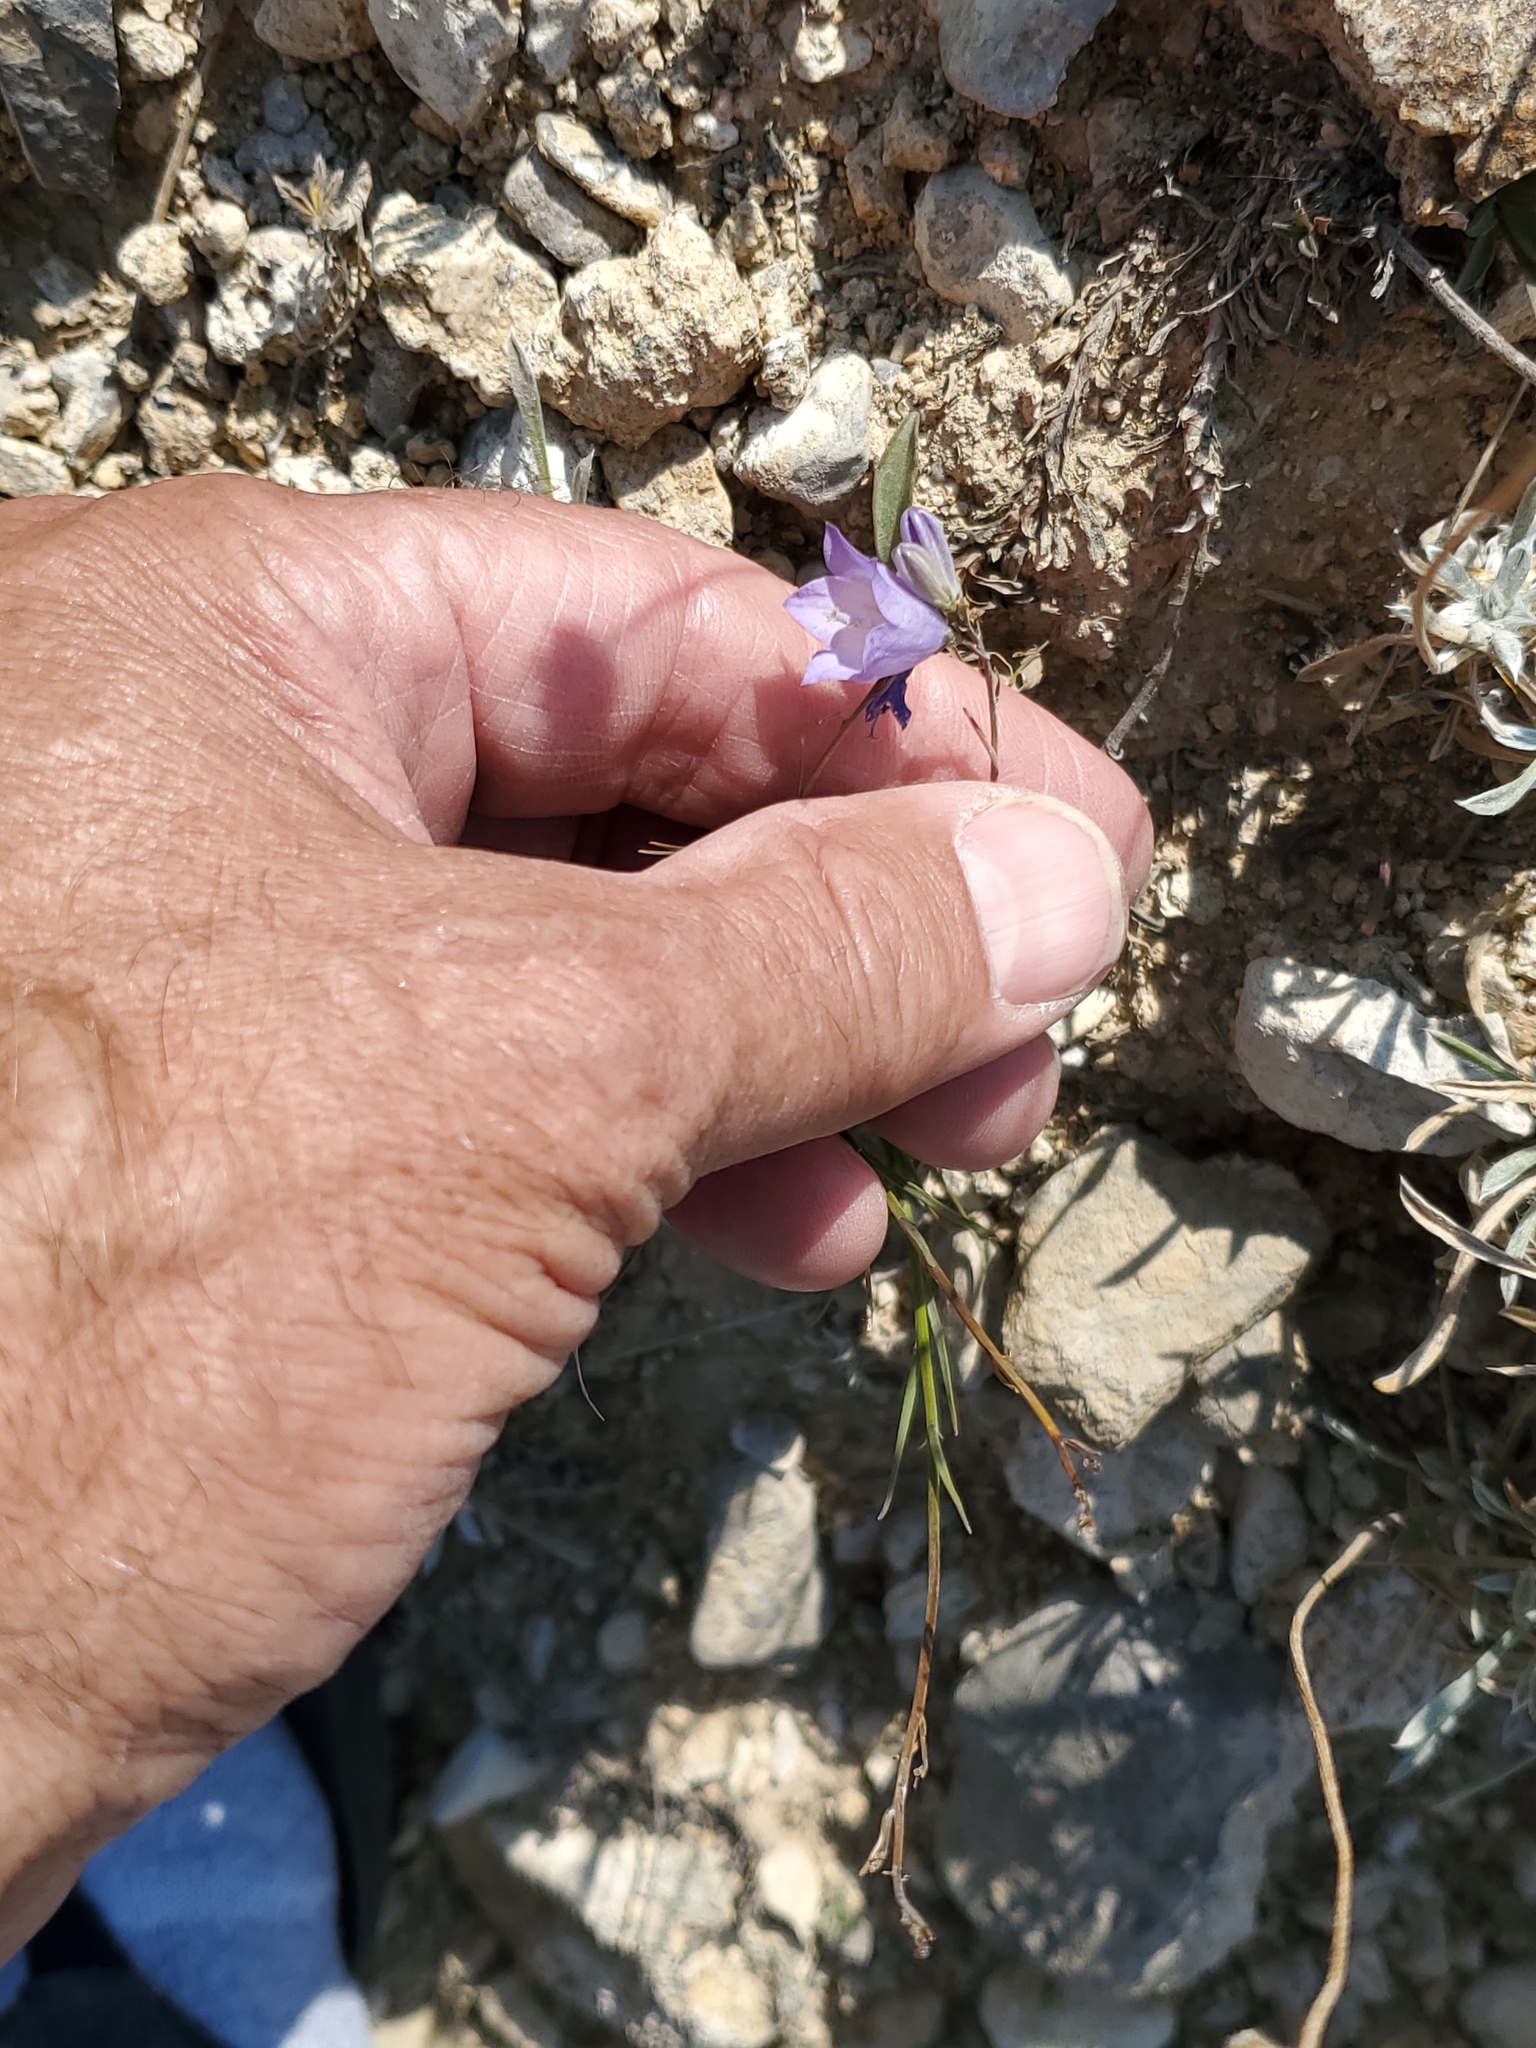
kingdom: Plantae
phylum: Tracheophyta
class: Magnoliopsida
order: Asterales
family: Campanulaceae
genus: Campanula
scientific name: Campanula petiolata
